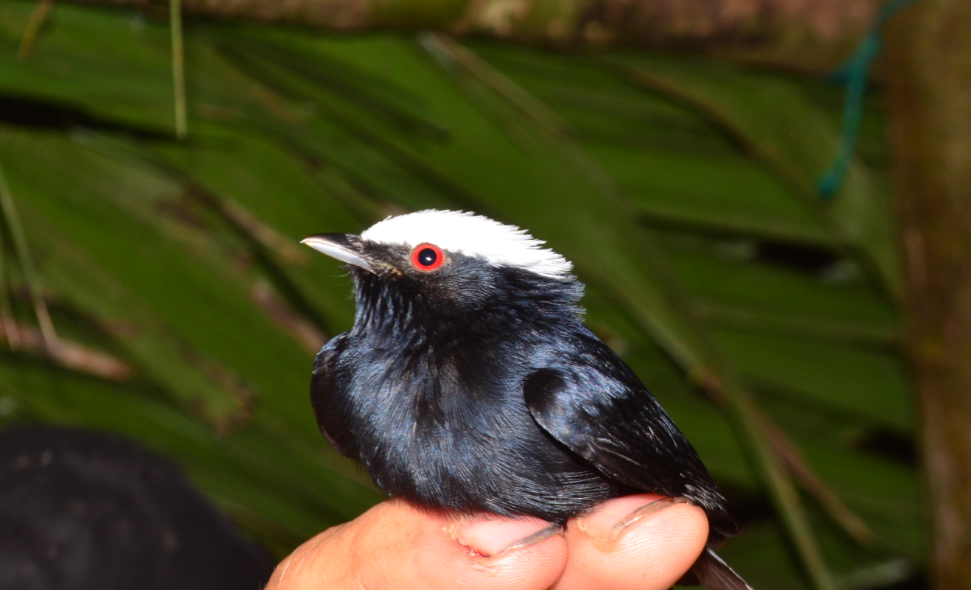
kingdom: Animalia
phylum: Chordata
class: Aves
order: Passeriformes
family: Pipridae
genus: Pipra
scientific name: Pipra pipra
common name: White-crowned manakin
